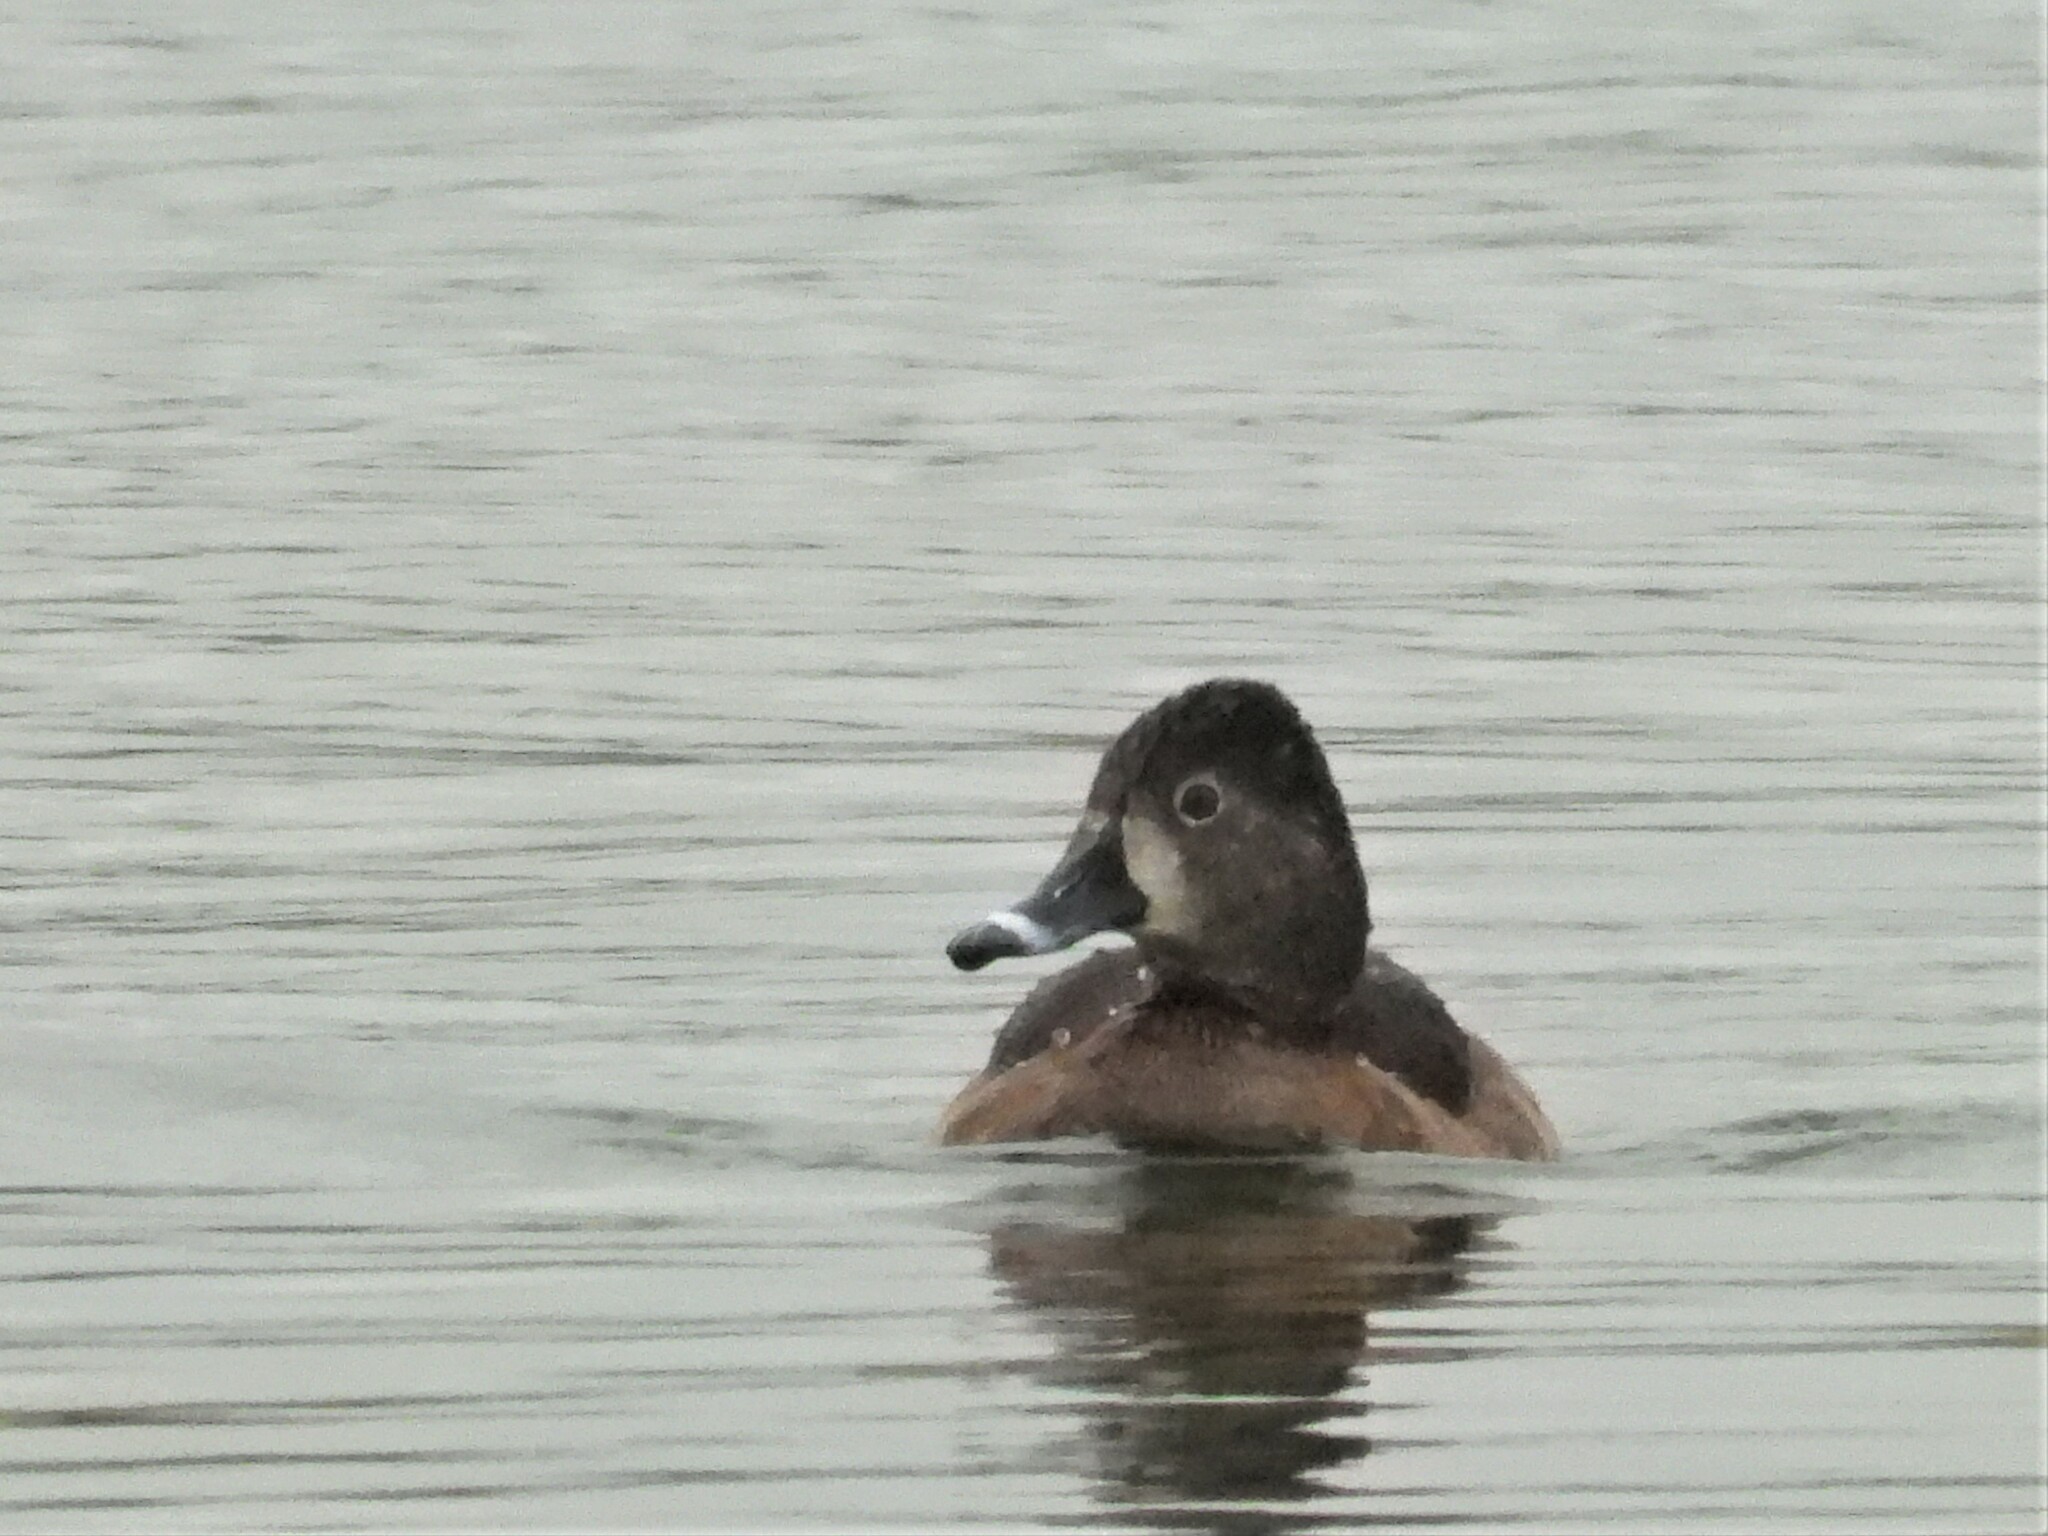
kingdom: Animalia
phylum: Chordata
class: Aves
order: Anseriformes
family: Anatidae
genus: Aythya
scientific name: Aythya collaris
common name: Ring-necked duck
